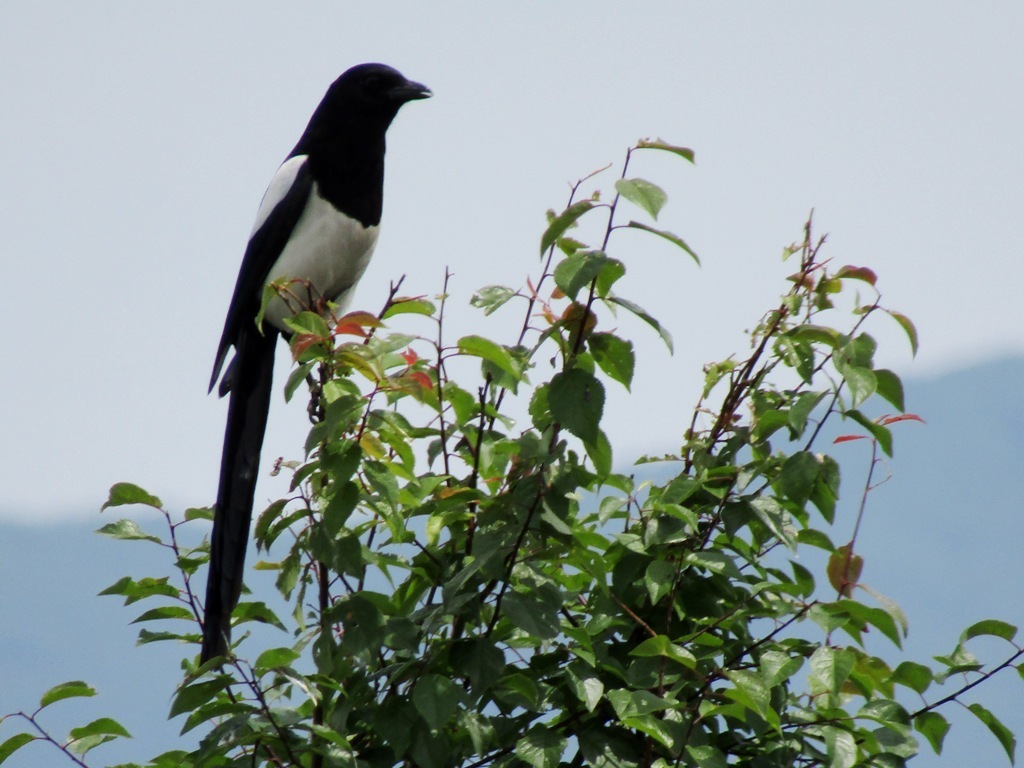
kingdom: Animalia
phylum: Chordata
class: Aves
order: Passeriformes
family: Corvidae
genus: Pica
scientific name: Pica pica
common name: Eurasian magpie
